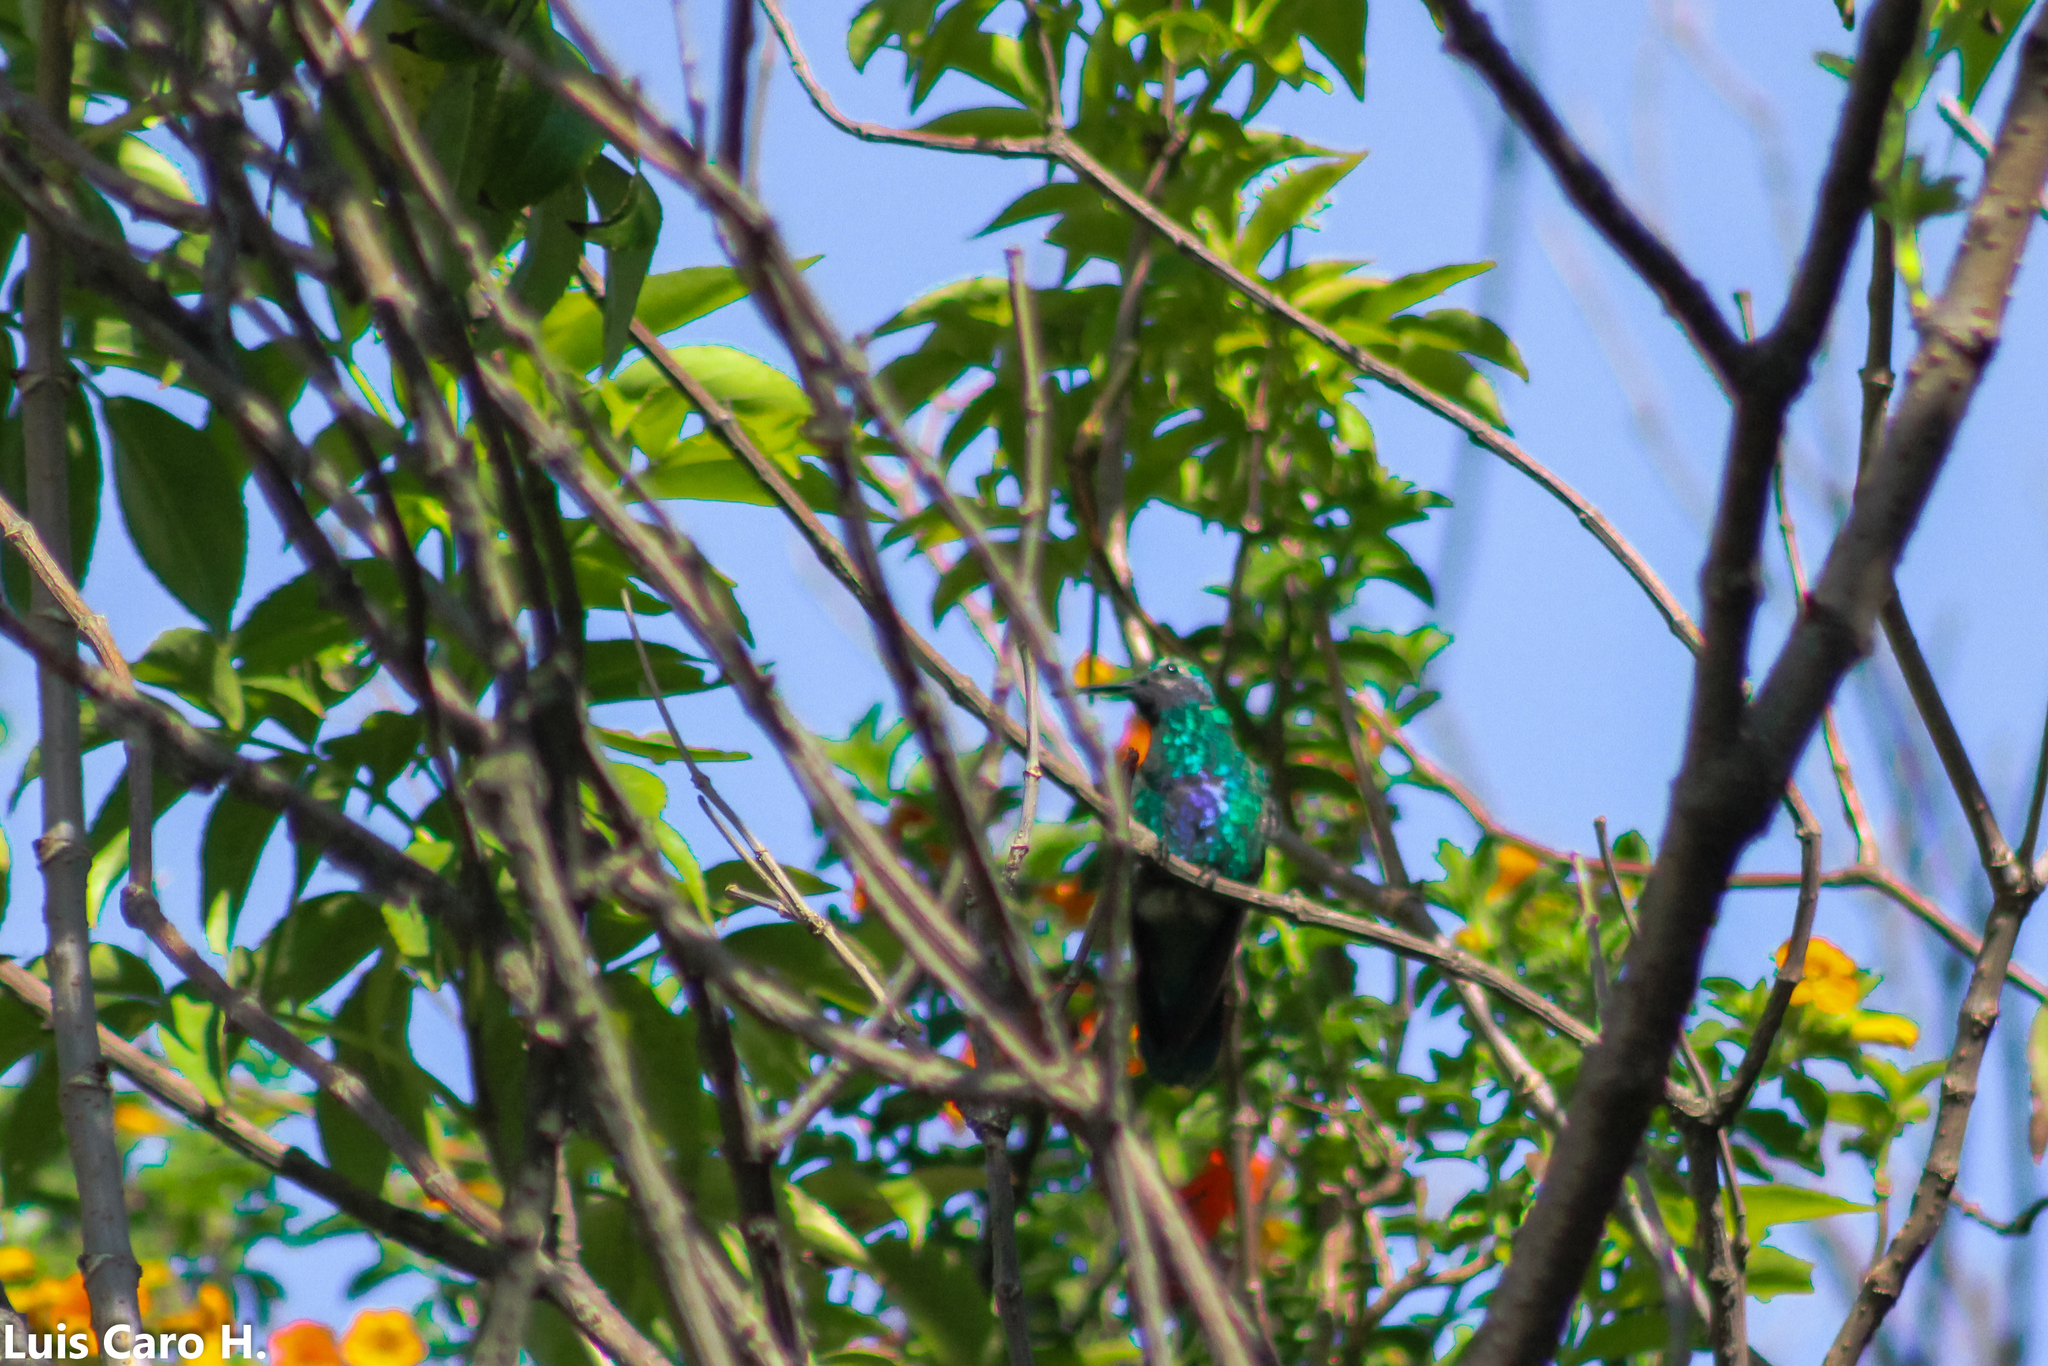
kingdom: Animalia
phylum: Chordata
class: Aves
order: Apodiformes
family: Trochilidae
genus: Colibri
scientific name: Colibri coruscans
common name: Sparkling violetear
